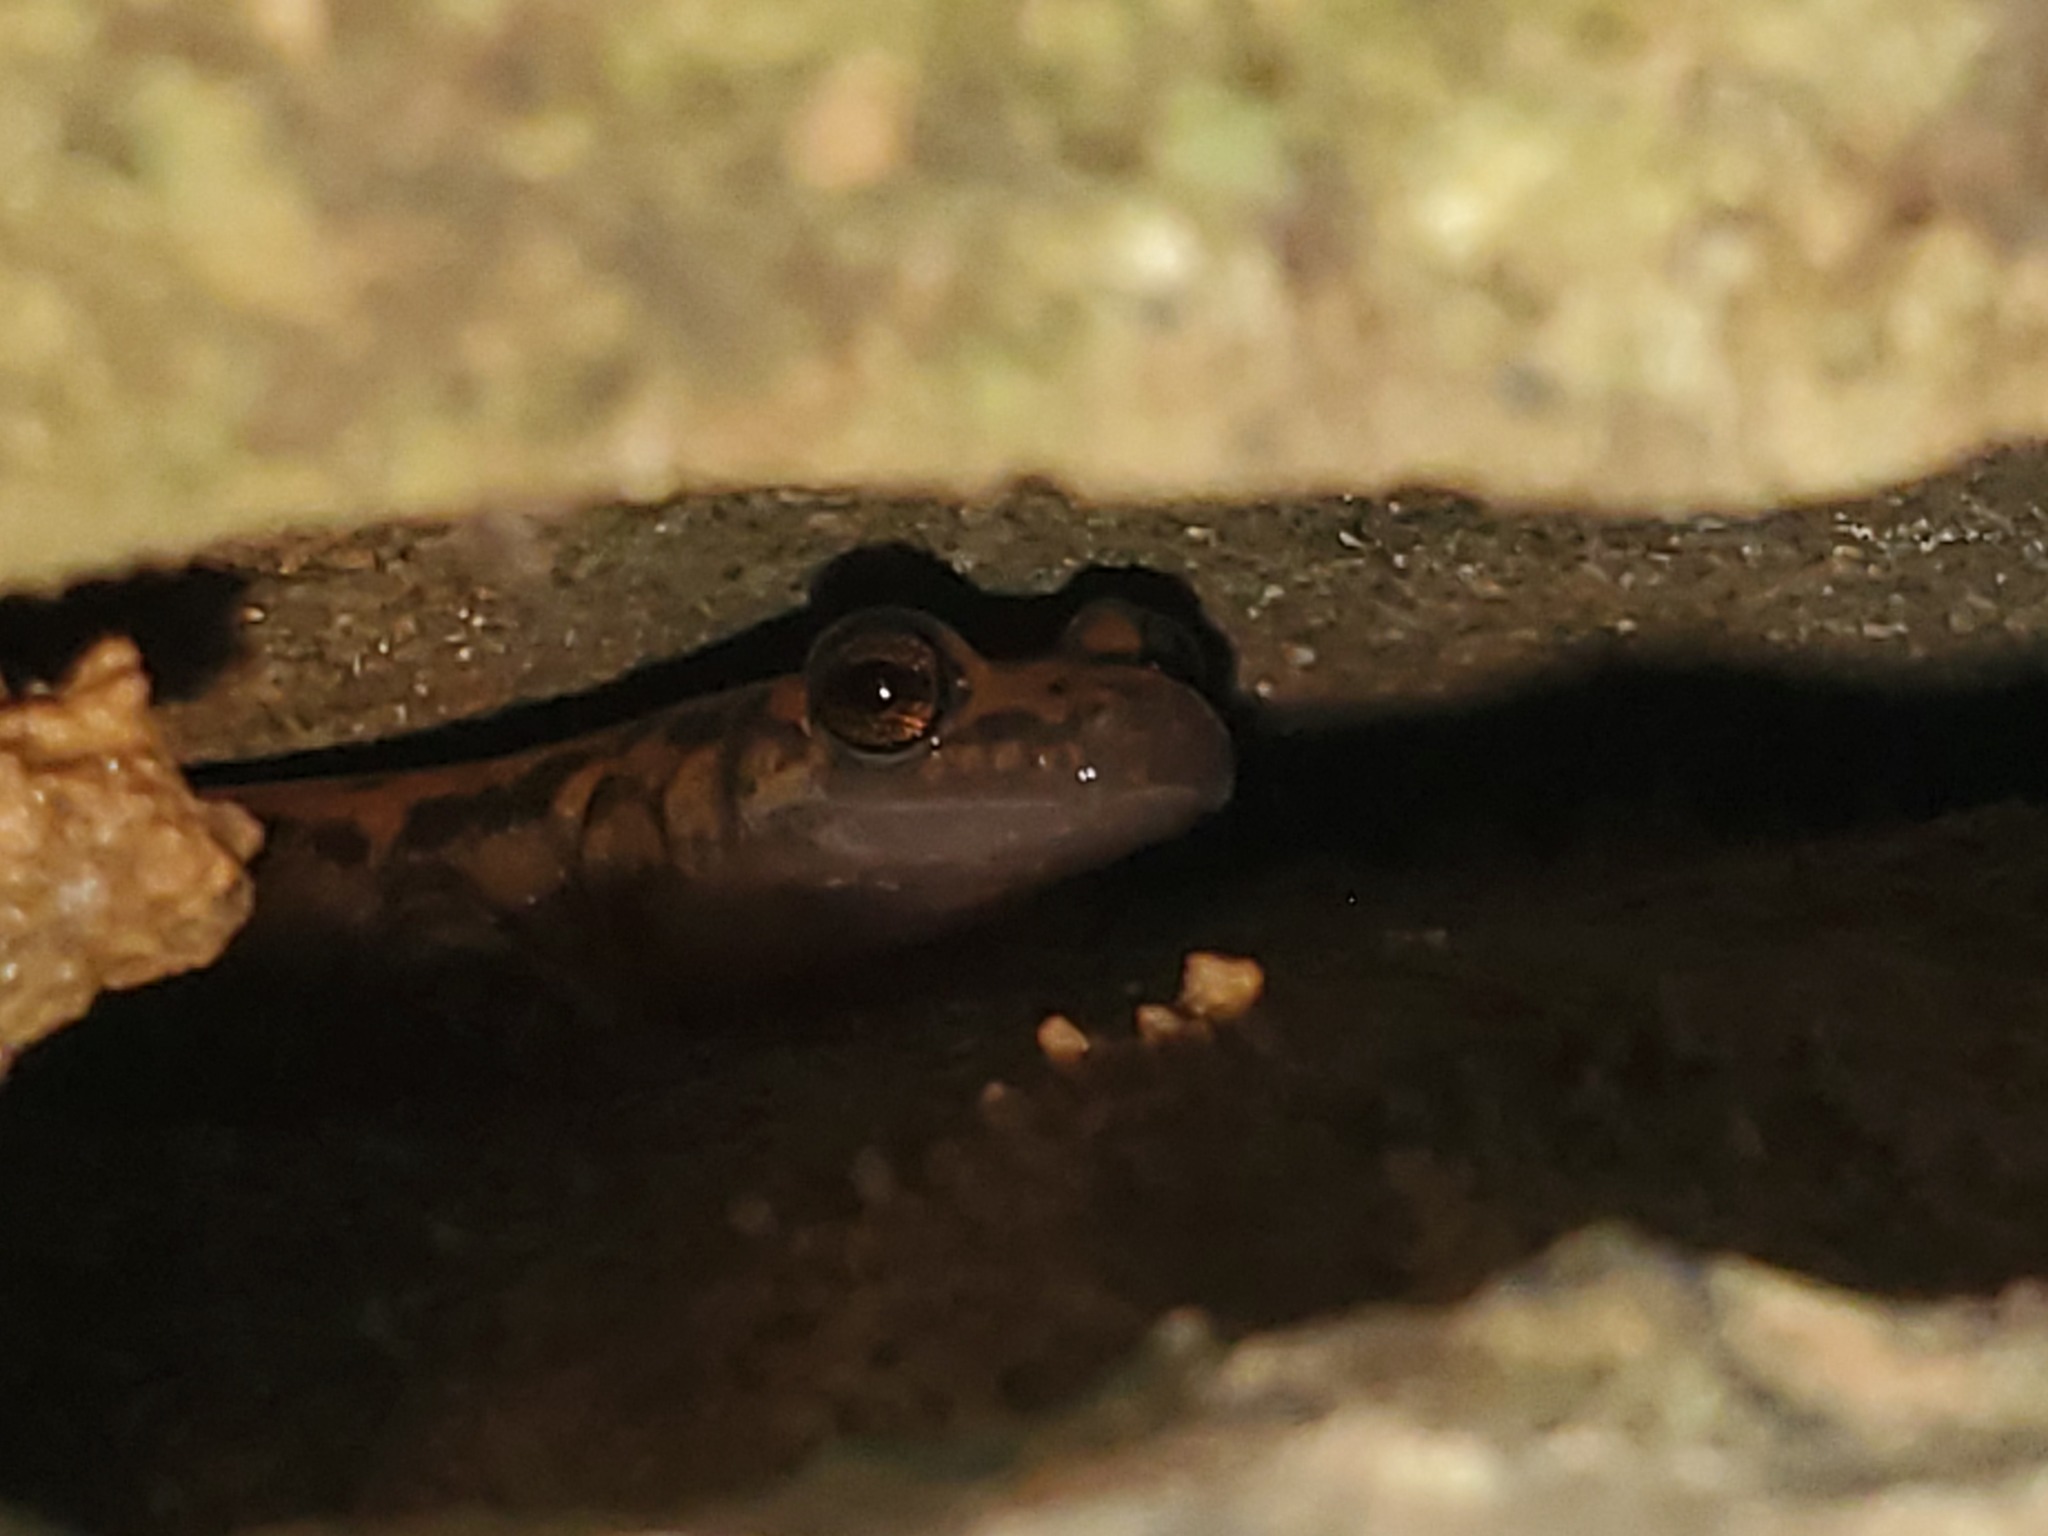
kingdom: Animalia
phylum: Chordata
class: Amphibia
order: Caudata
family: Plethodontidae
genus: Eurycea
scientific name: Eurycea lucifuga
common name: Cave salamander
